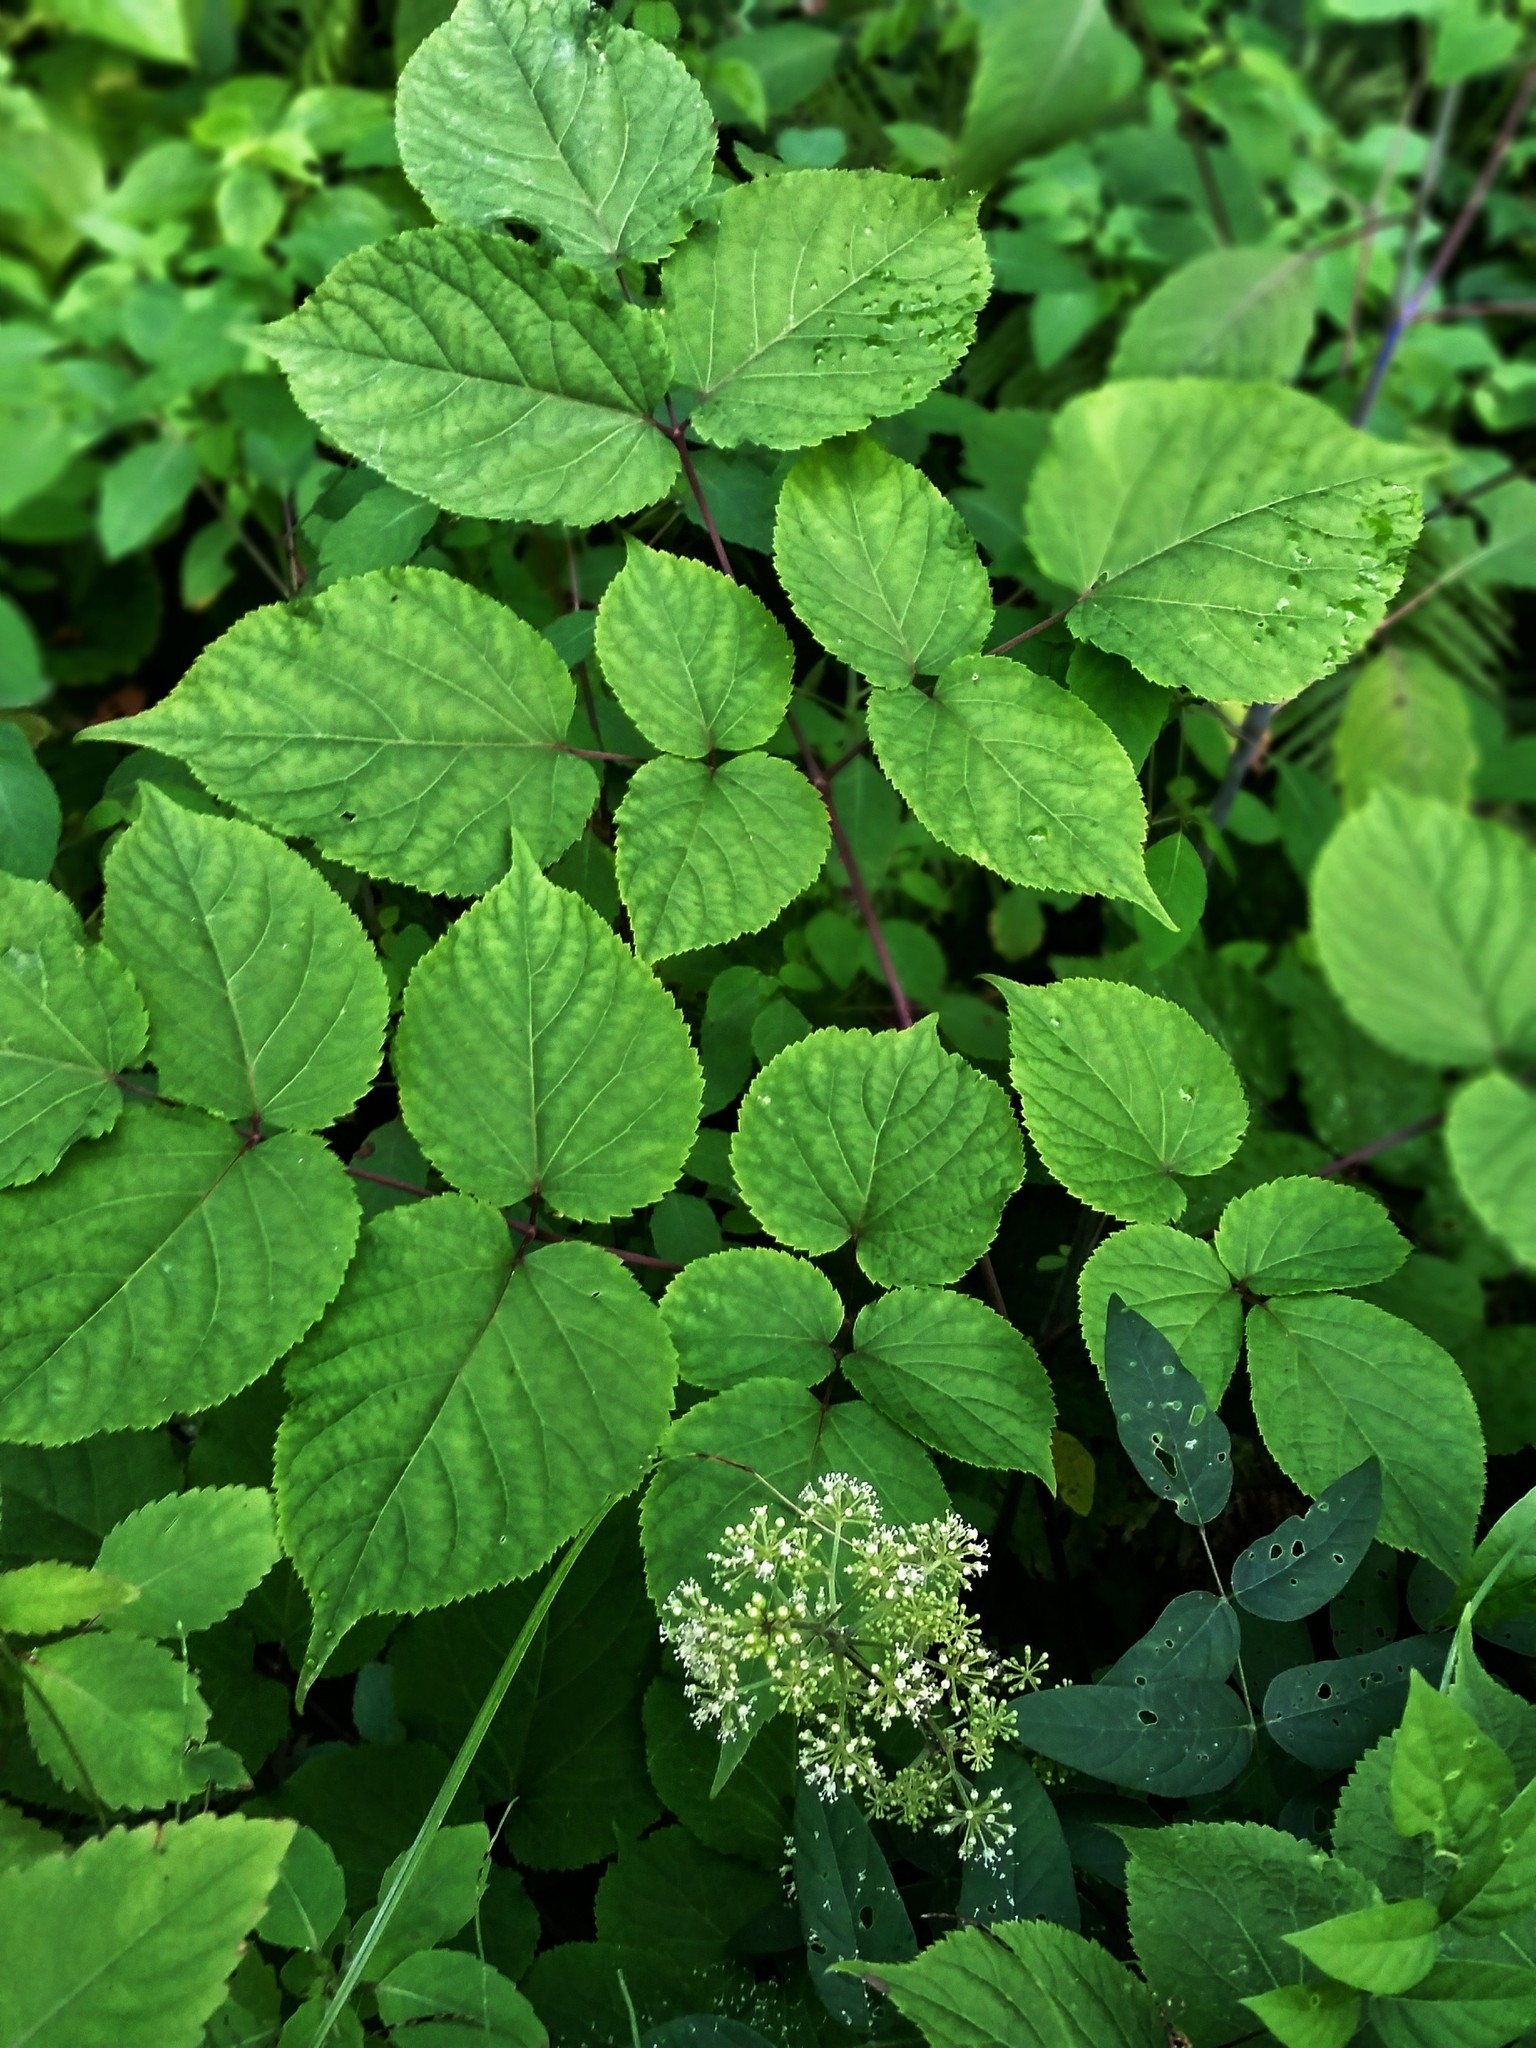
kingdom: Plantae
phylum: Tracheophyta
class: Magnoliopsida
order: Apiales
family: Araliaceae
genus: Aralia
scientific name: Aralia racemosa
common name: American-spikenard
